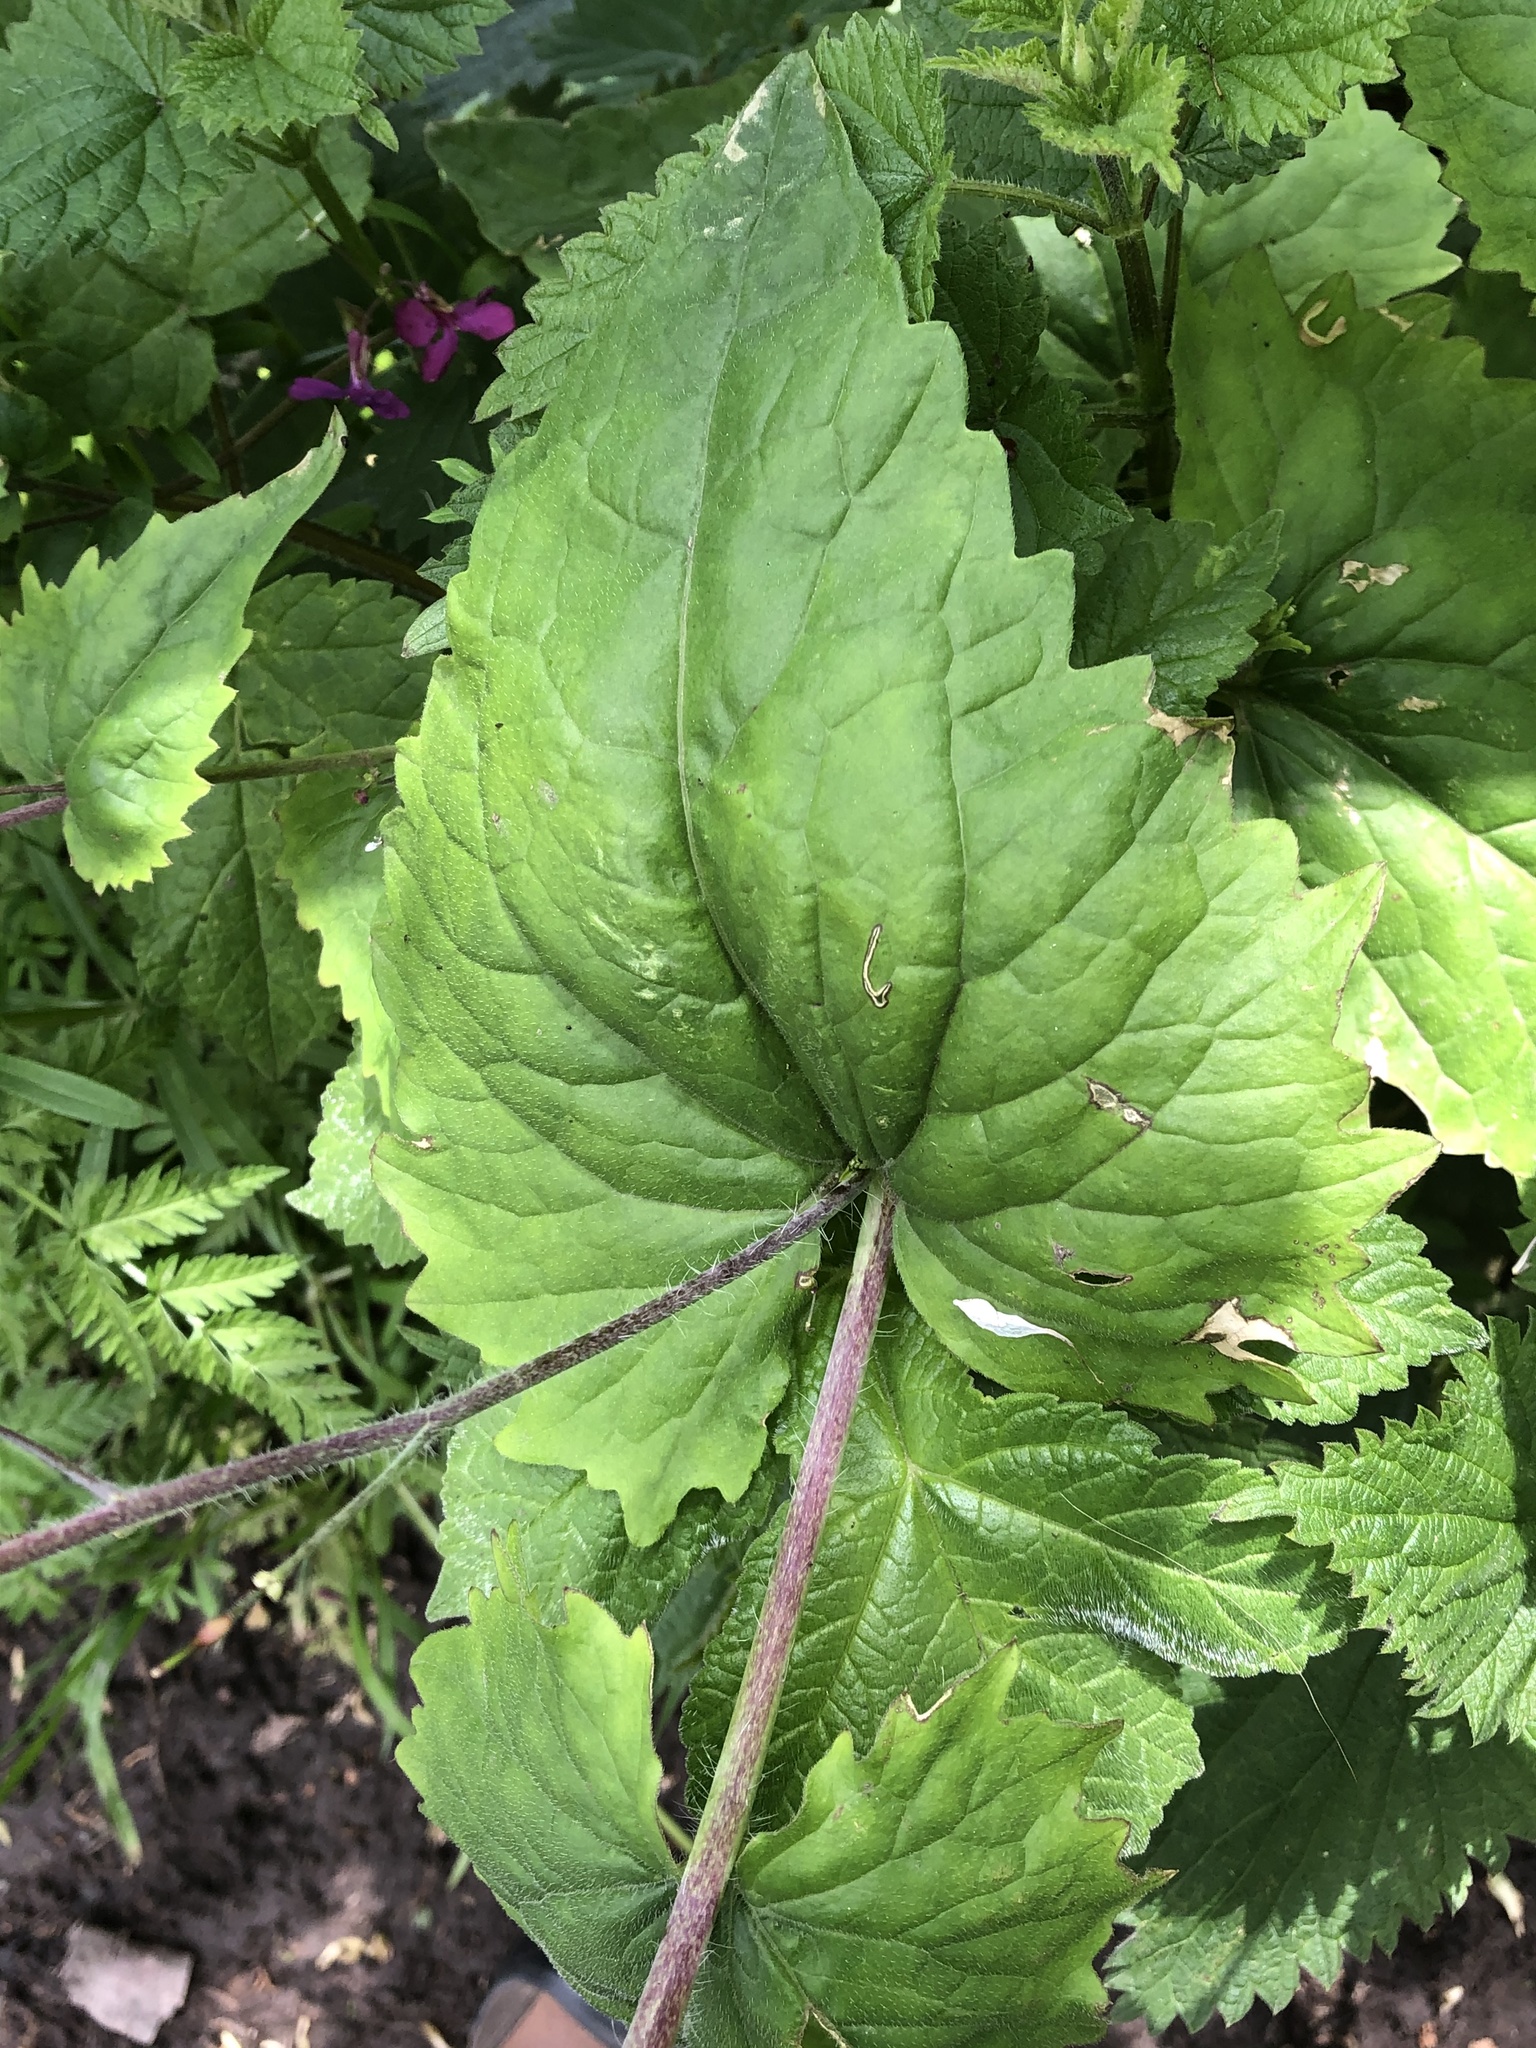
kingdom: Plantae
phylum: Tracheophyta
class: Magnoliopsida
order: Brassicales
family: Brassicaceae
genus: Lunaria
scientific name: Lunaria annua
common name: Honesty
